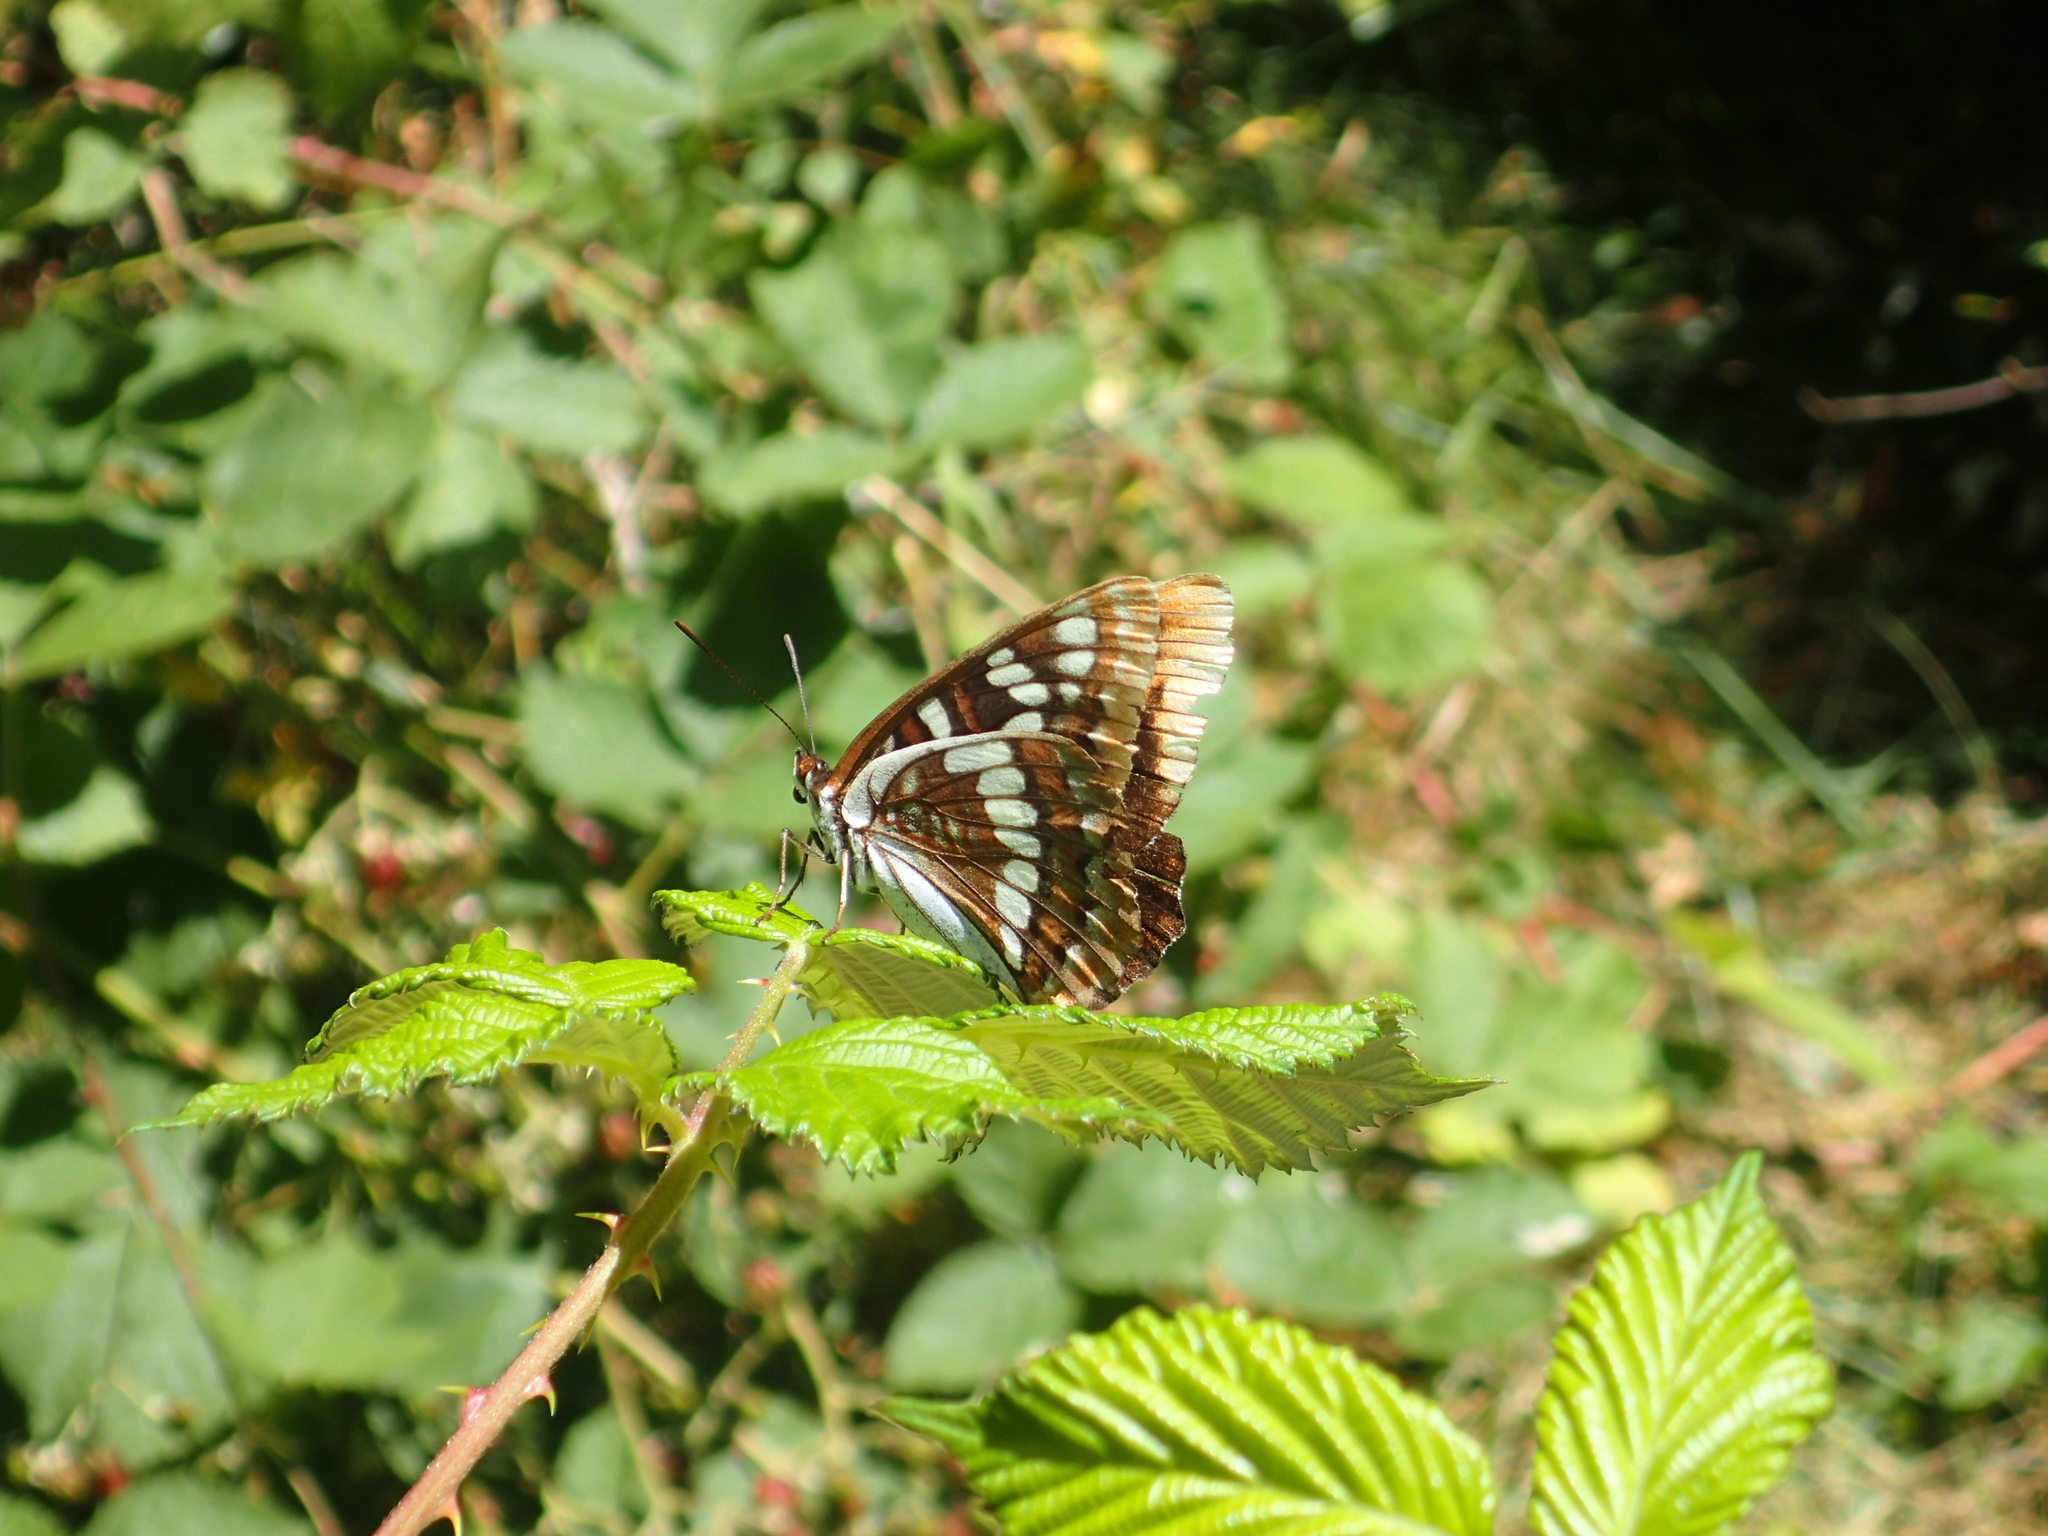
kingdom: Animalia
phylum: Arthropoda
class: Insecta
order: Lepidoptera
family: Nymphalidae
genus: Limenitis
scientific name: Limenitis lorquini
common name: Lorquin's admiral
